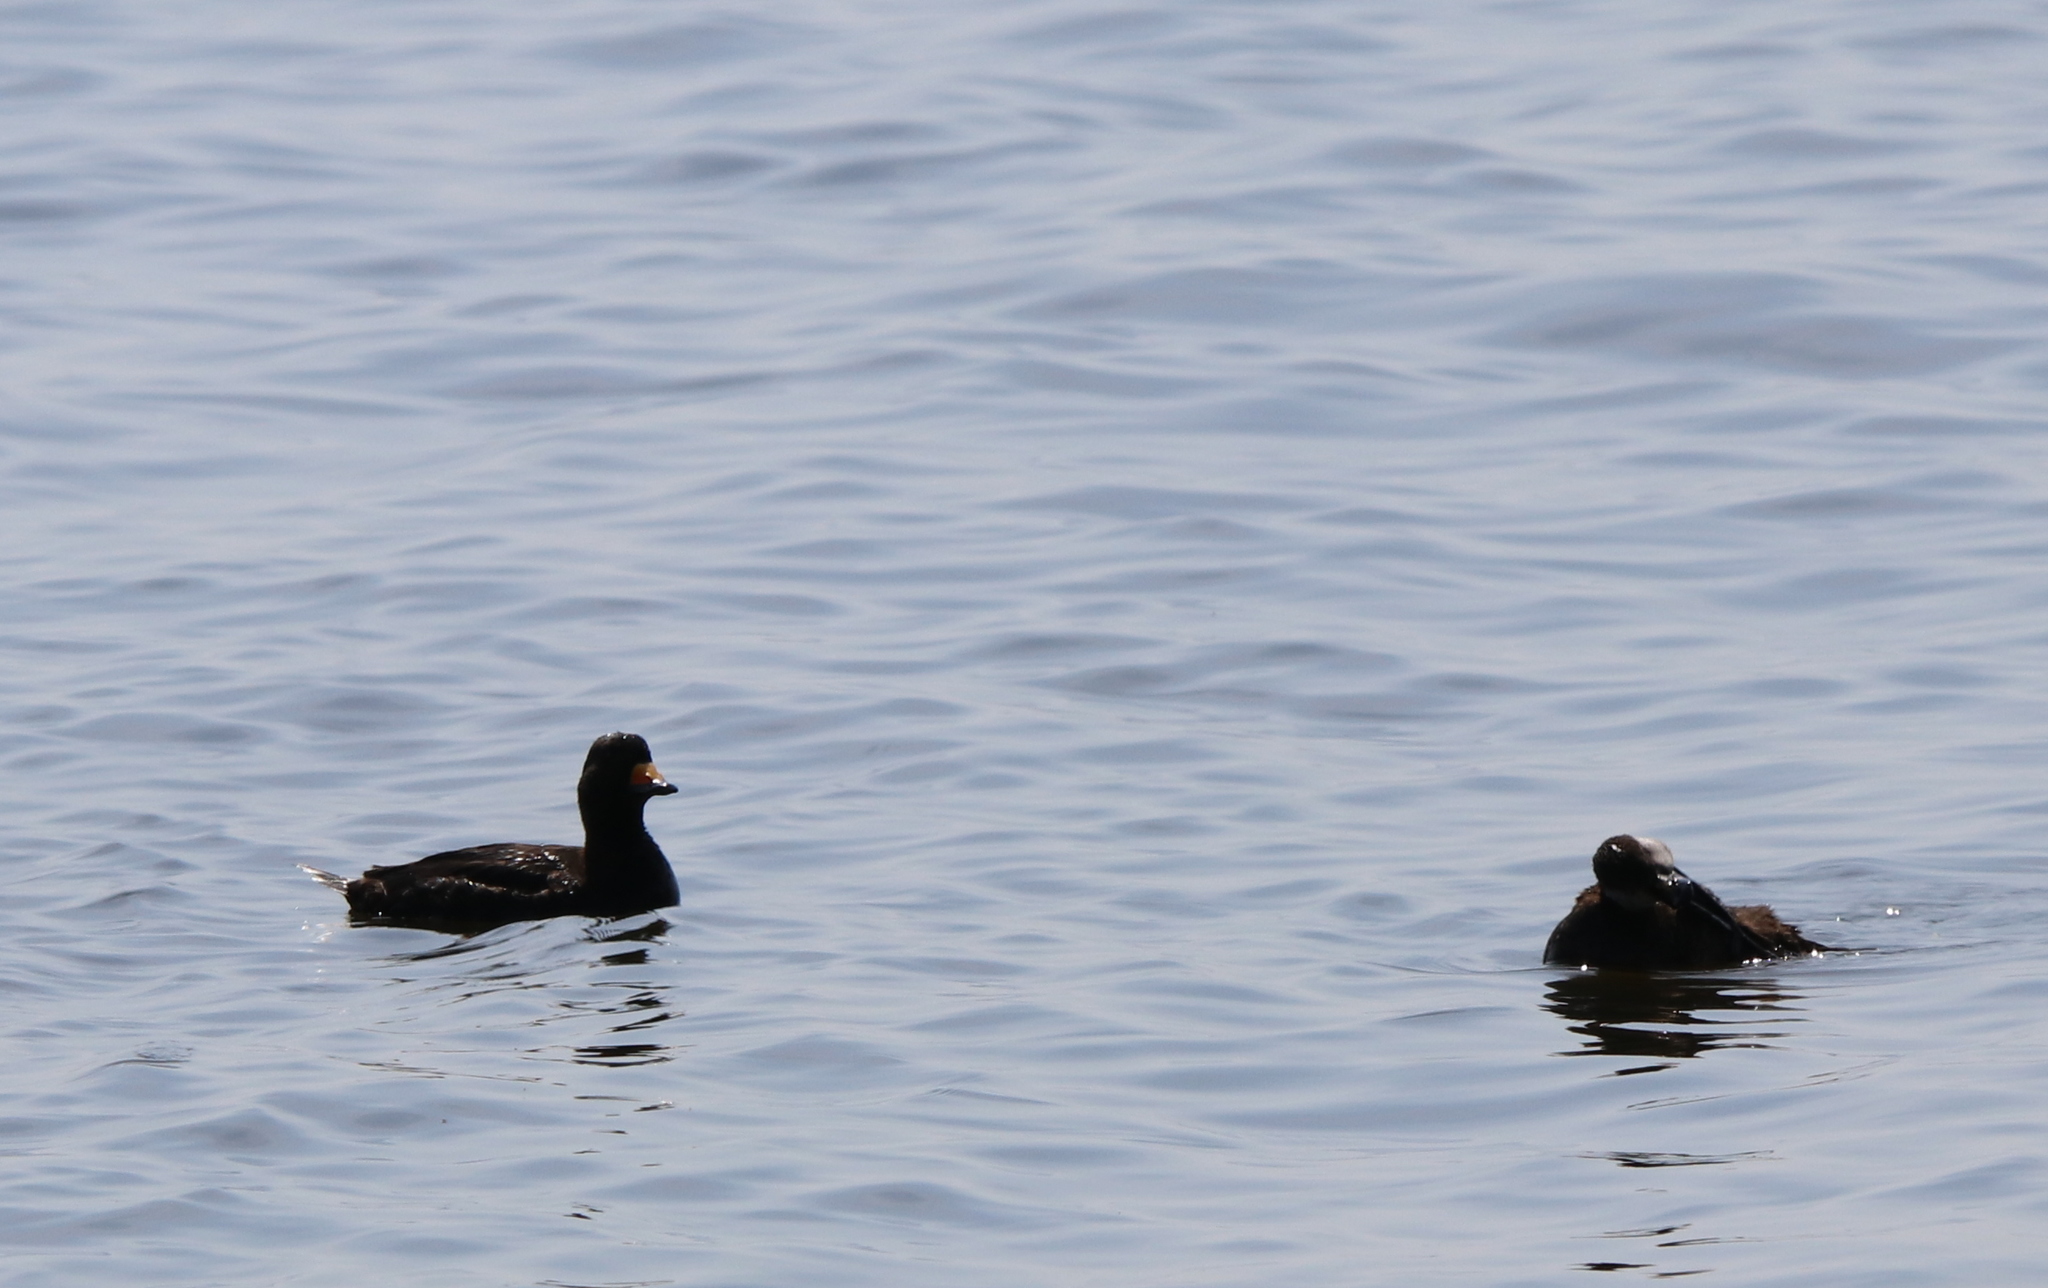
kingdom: Animalia
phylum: Chordata
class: Aves
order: Anseriformes
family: Anatidae
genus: Melanitta
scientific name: Melanitta americana
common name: Black scoter
